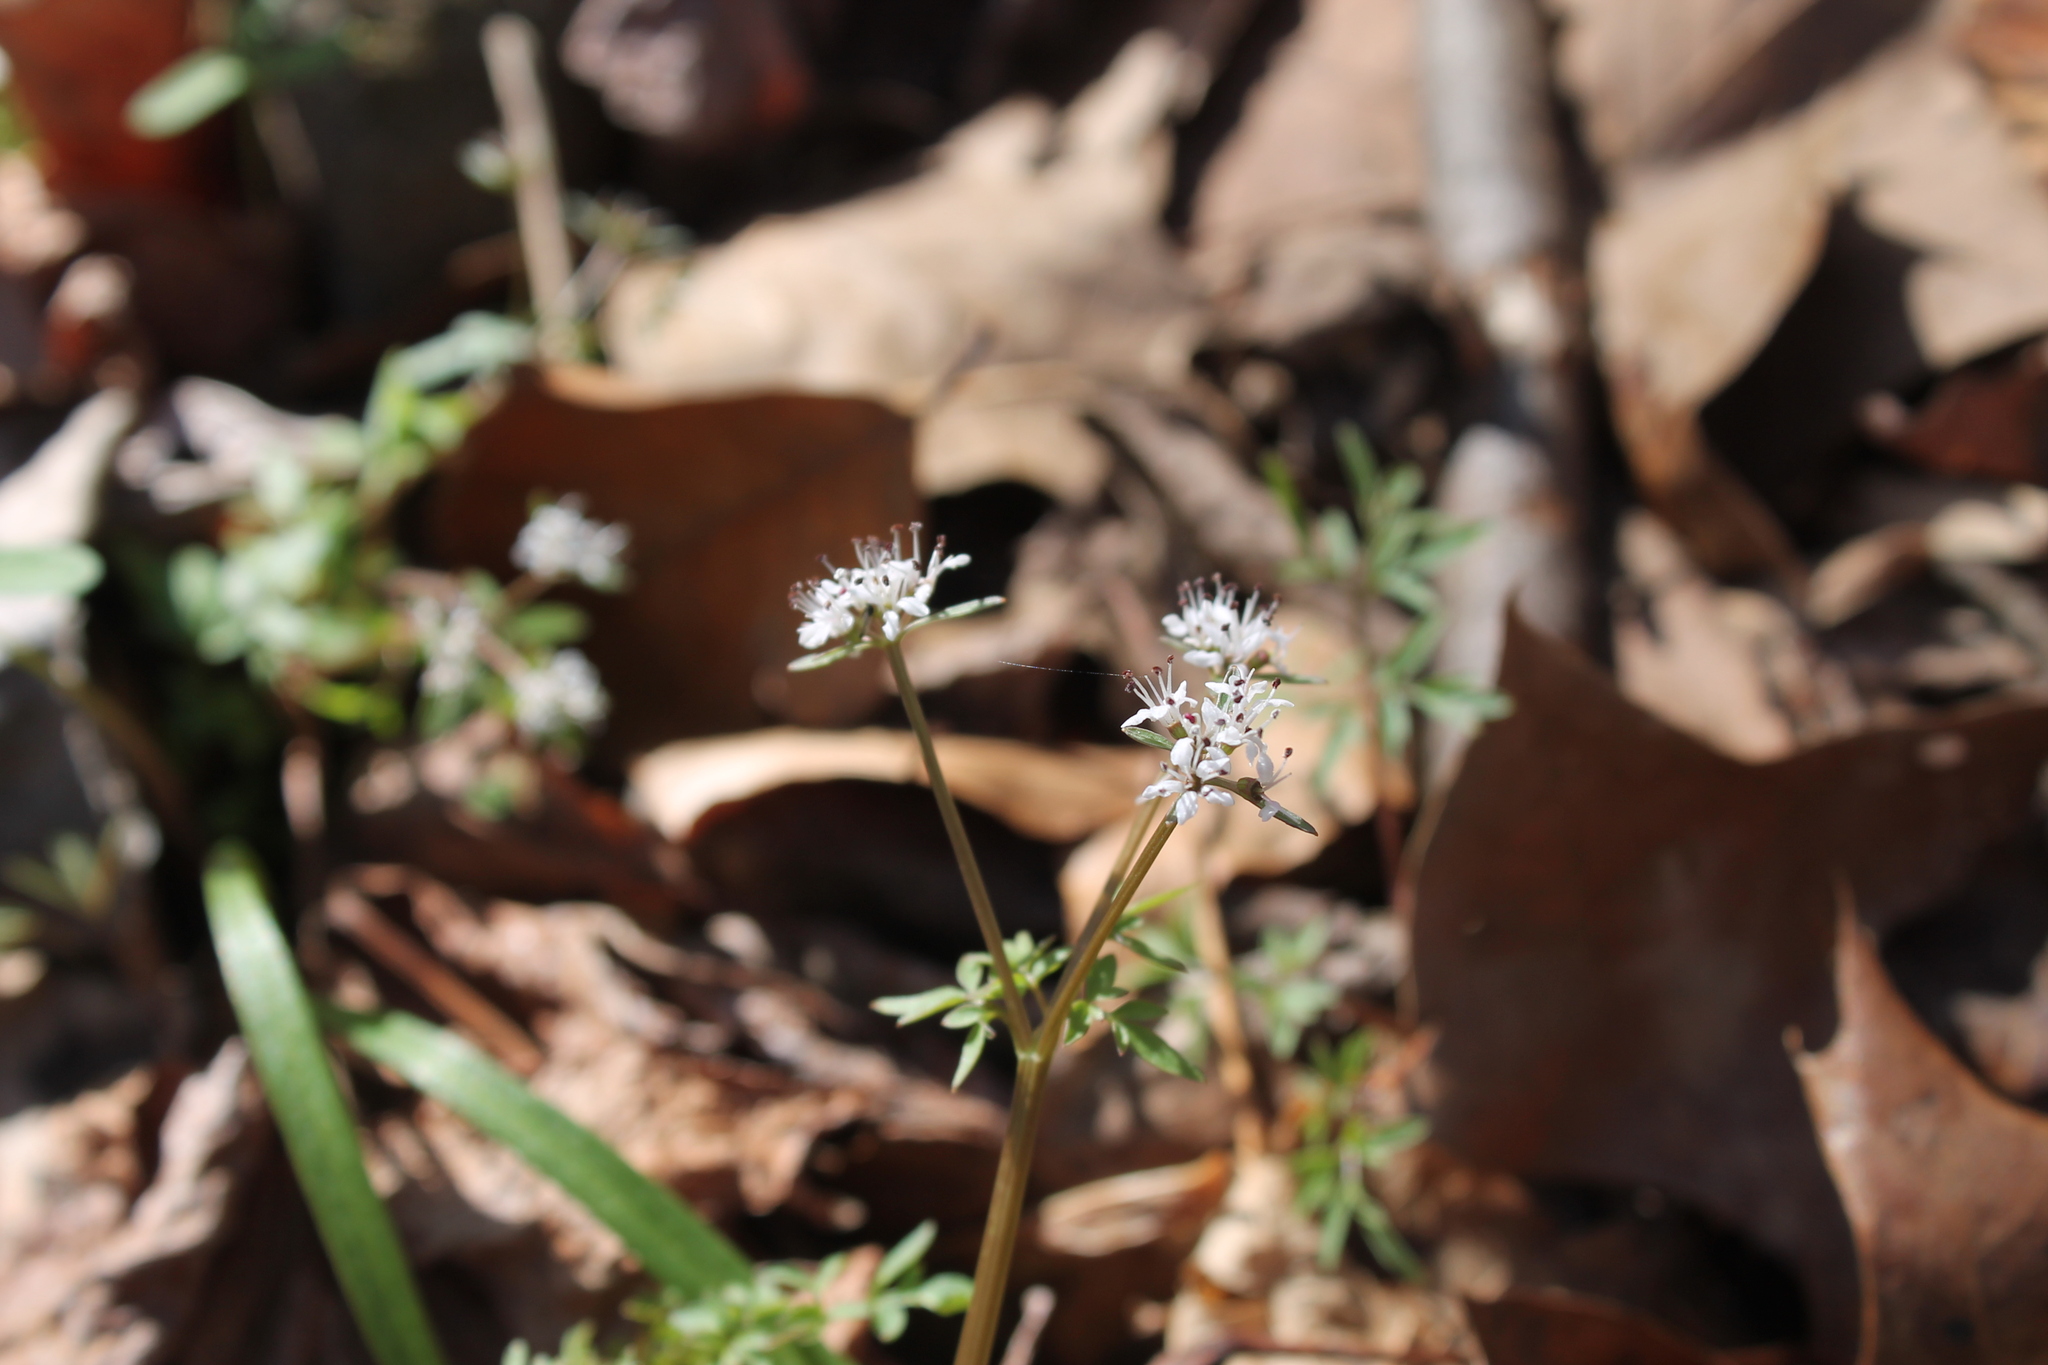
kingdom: Plantae
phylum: Tracheophyta
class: Magnoliopsida
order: Apiales
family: Apiaceae
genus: Erigenia
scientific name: Erigenia bulbosa
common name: Pepper-and-salt
